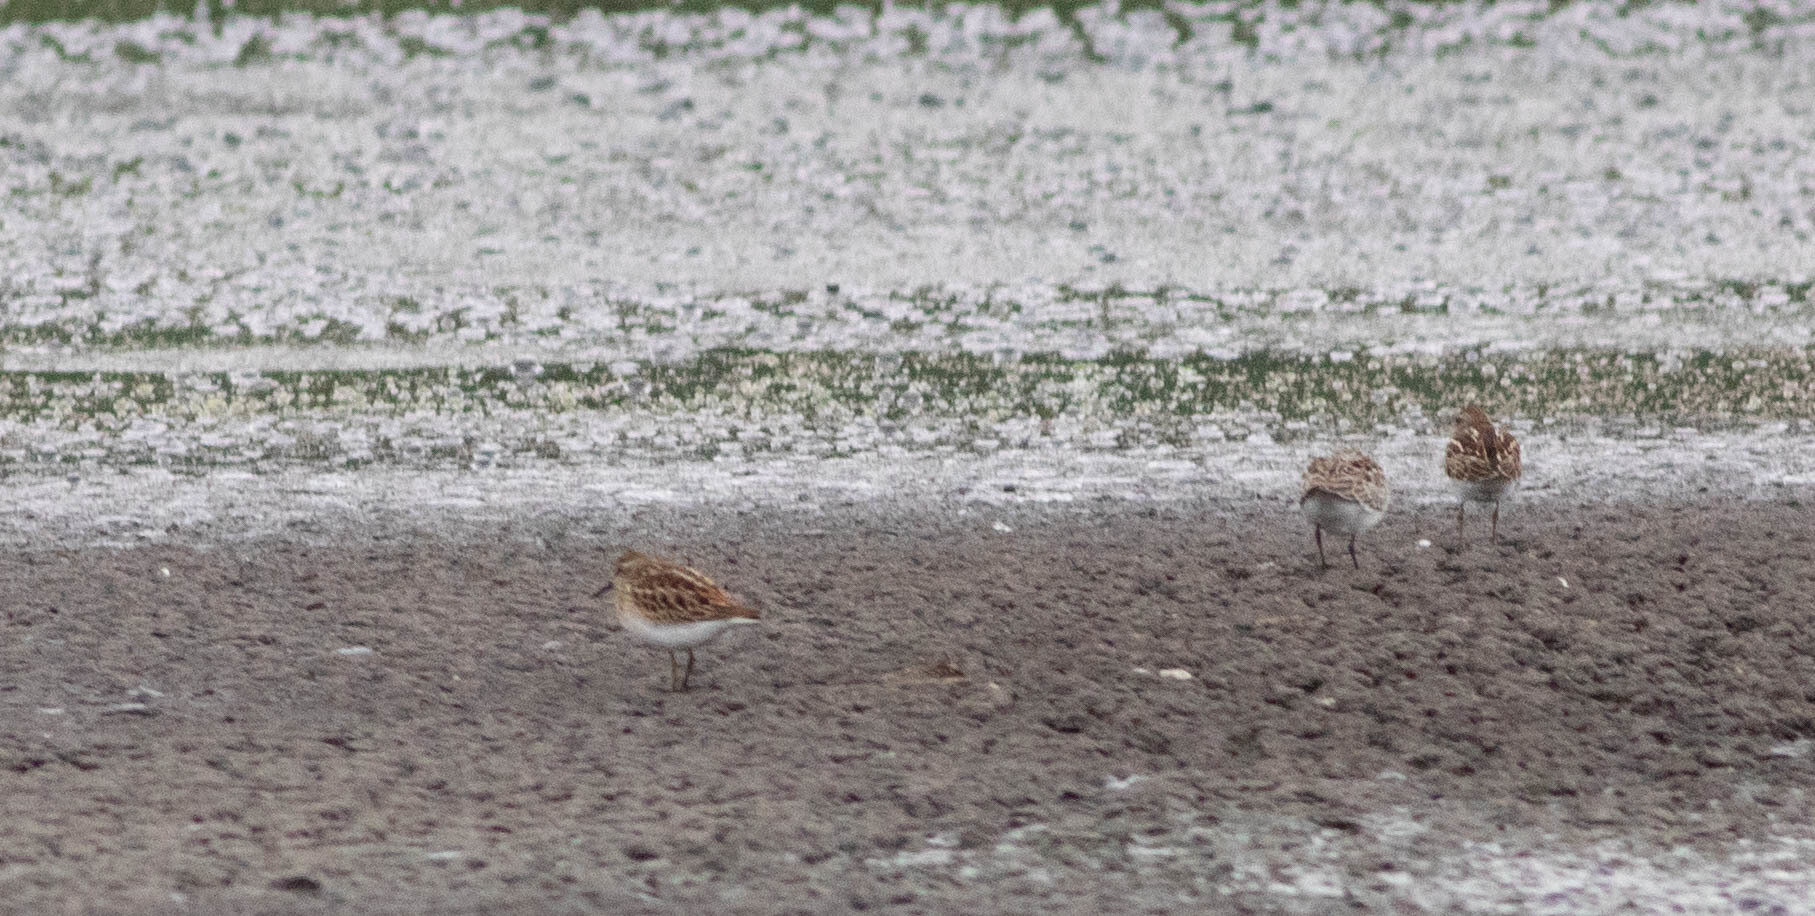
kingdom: Animalia
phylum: Chordata
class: Aves
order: Charadriiformes
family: Scolopacidae
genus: Calidris
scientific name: Calidris minutilla
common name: Least sandpiper
